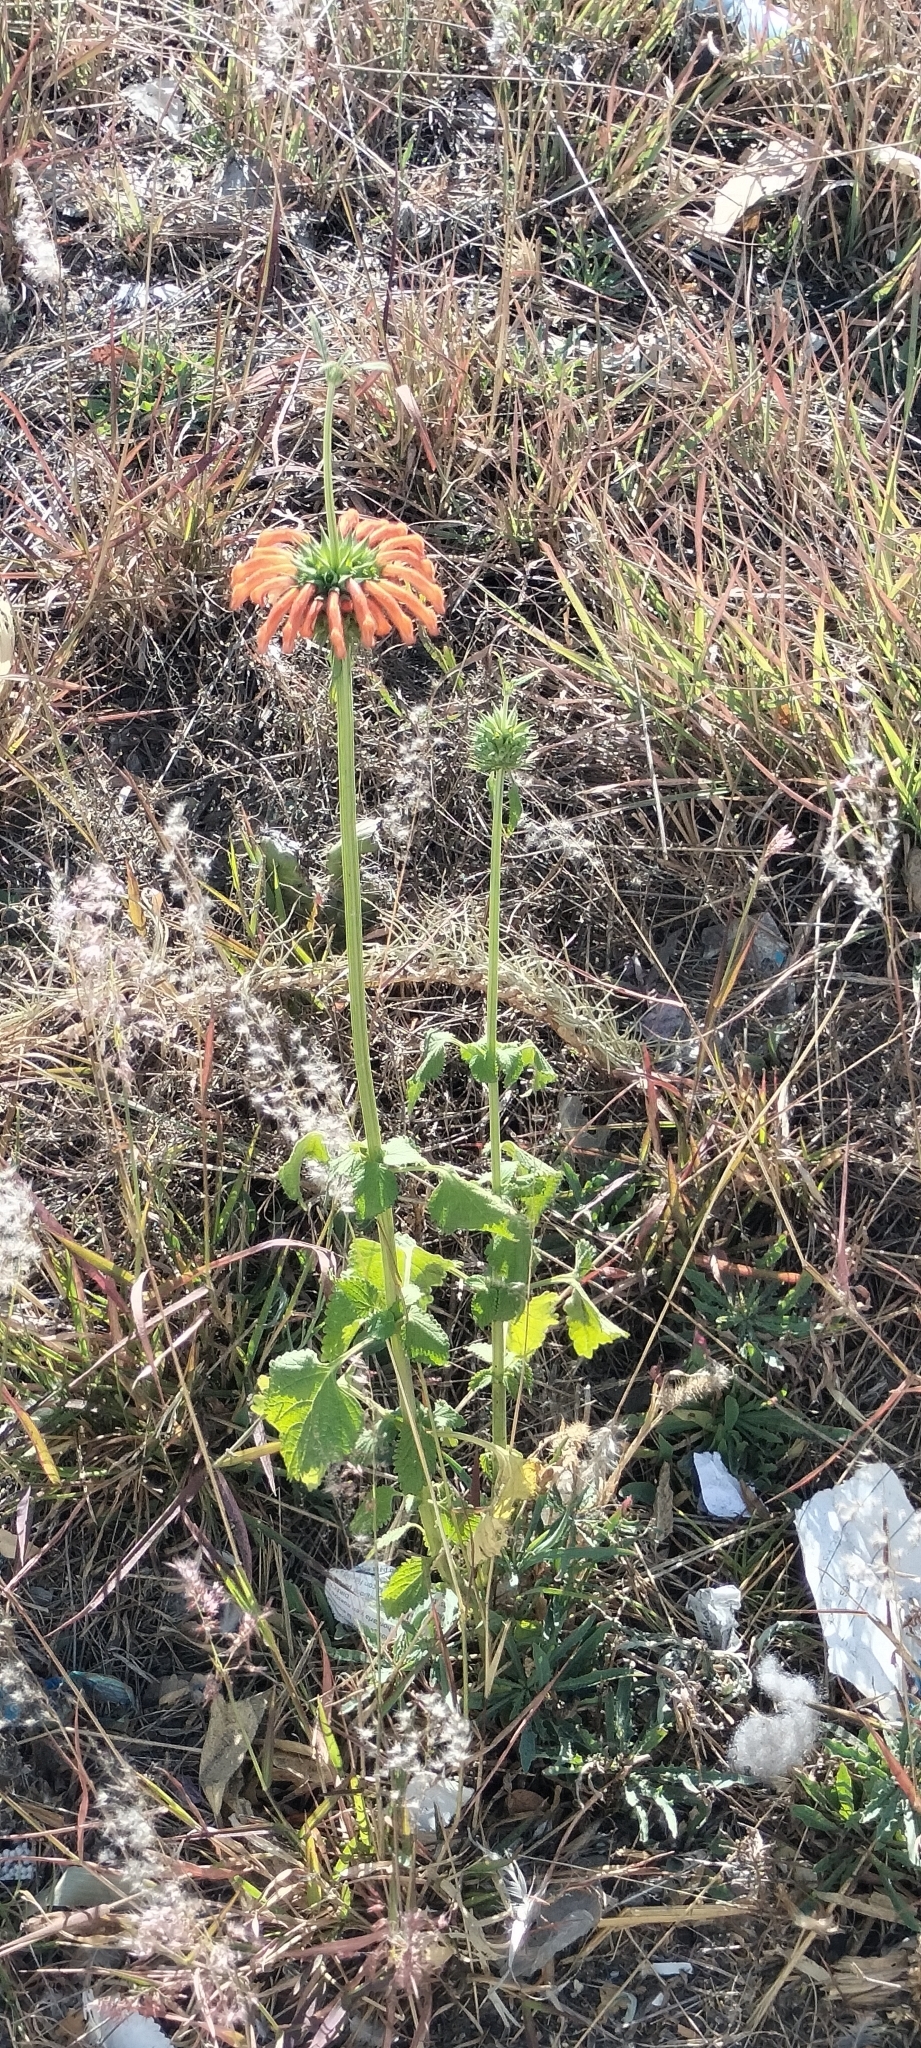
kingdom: Plantae
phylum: Tracheophyta
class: Magnoliopsida
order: Lamiales
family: Lamiaceae
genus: Leonotis
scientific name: Leonotis nepetifolia
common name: Christmas candlestick
